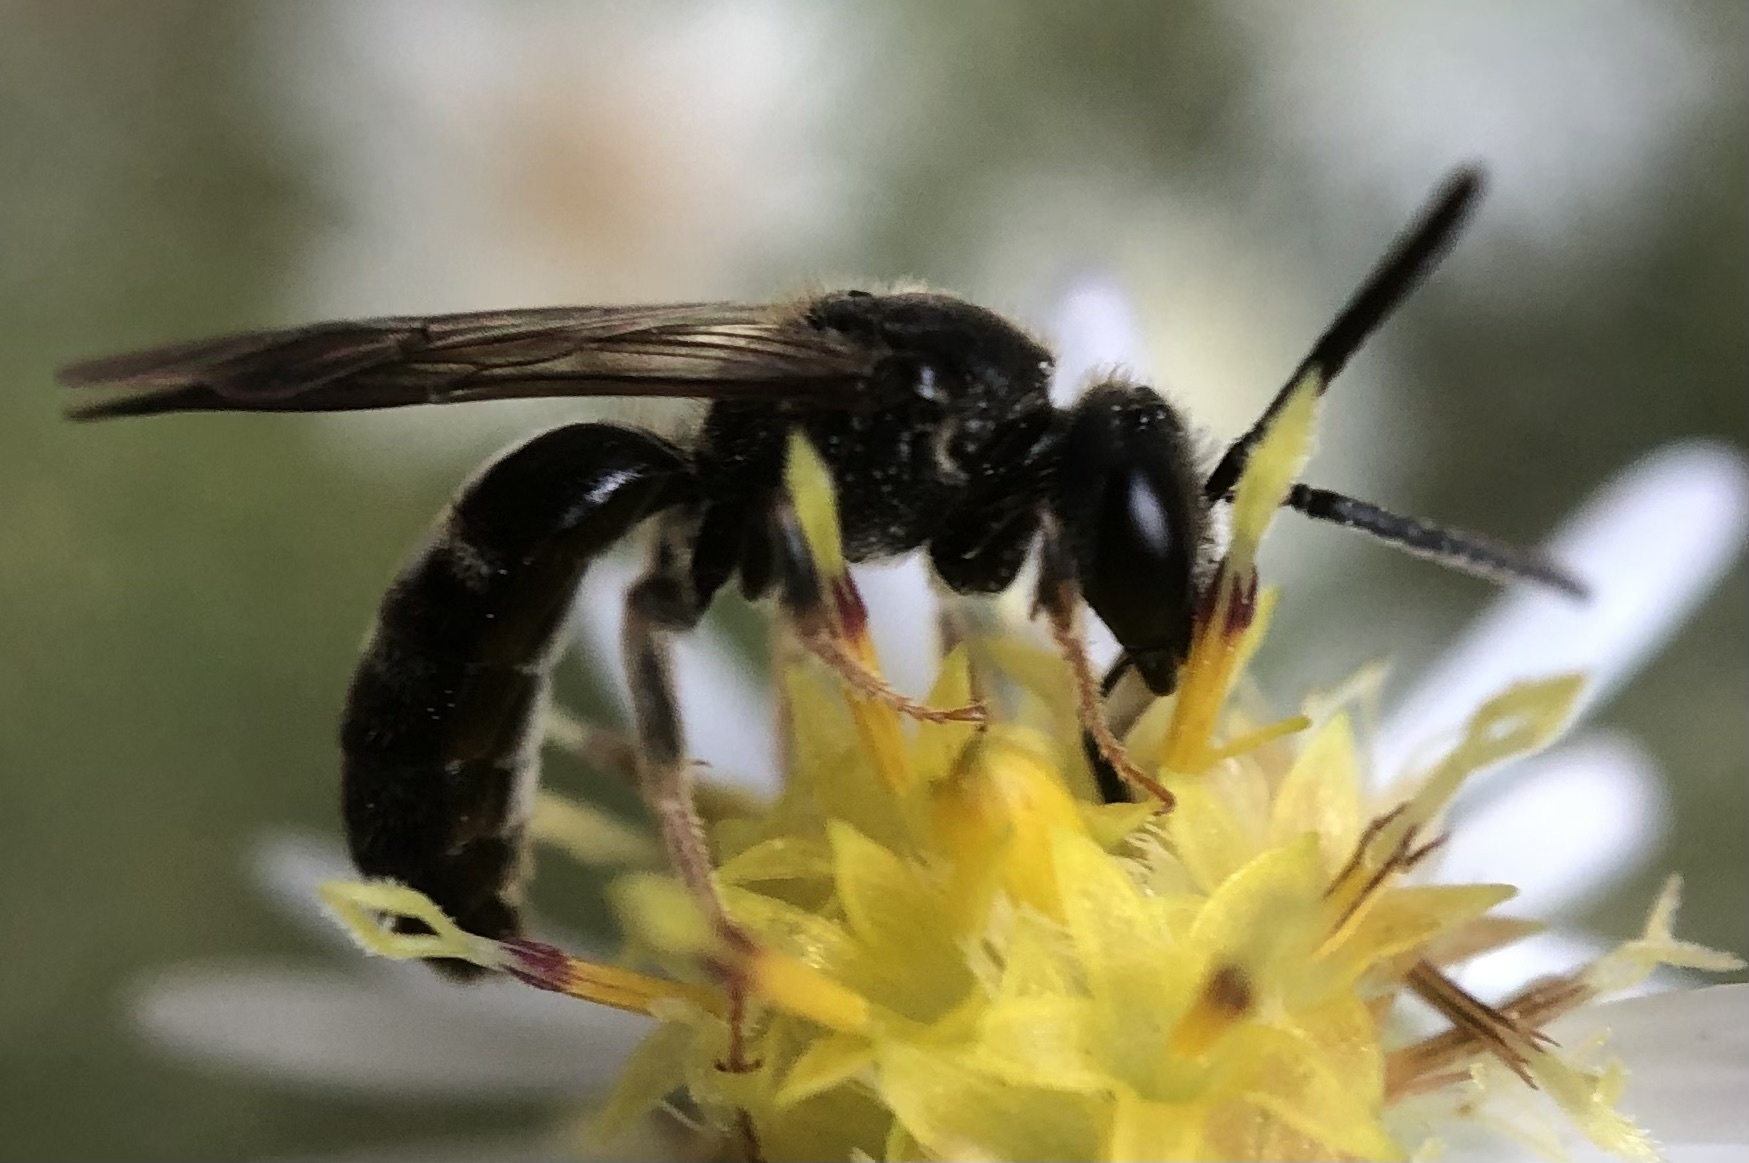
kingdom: Animalia
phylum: Arthropoda
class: Insecta
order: Hymenoptera
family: Halictidae
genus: Lasioglossum
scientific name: Lasioglossum fuscipenne
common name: Brown-winged sweat bee
